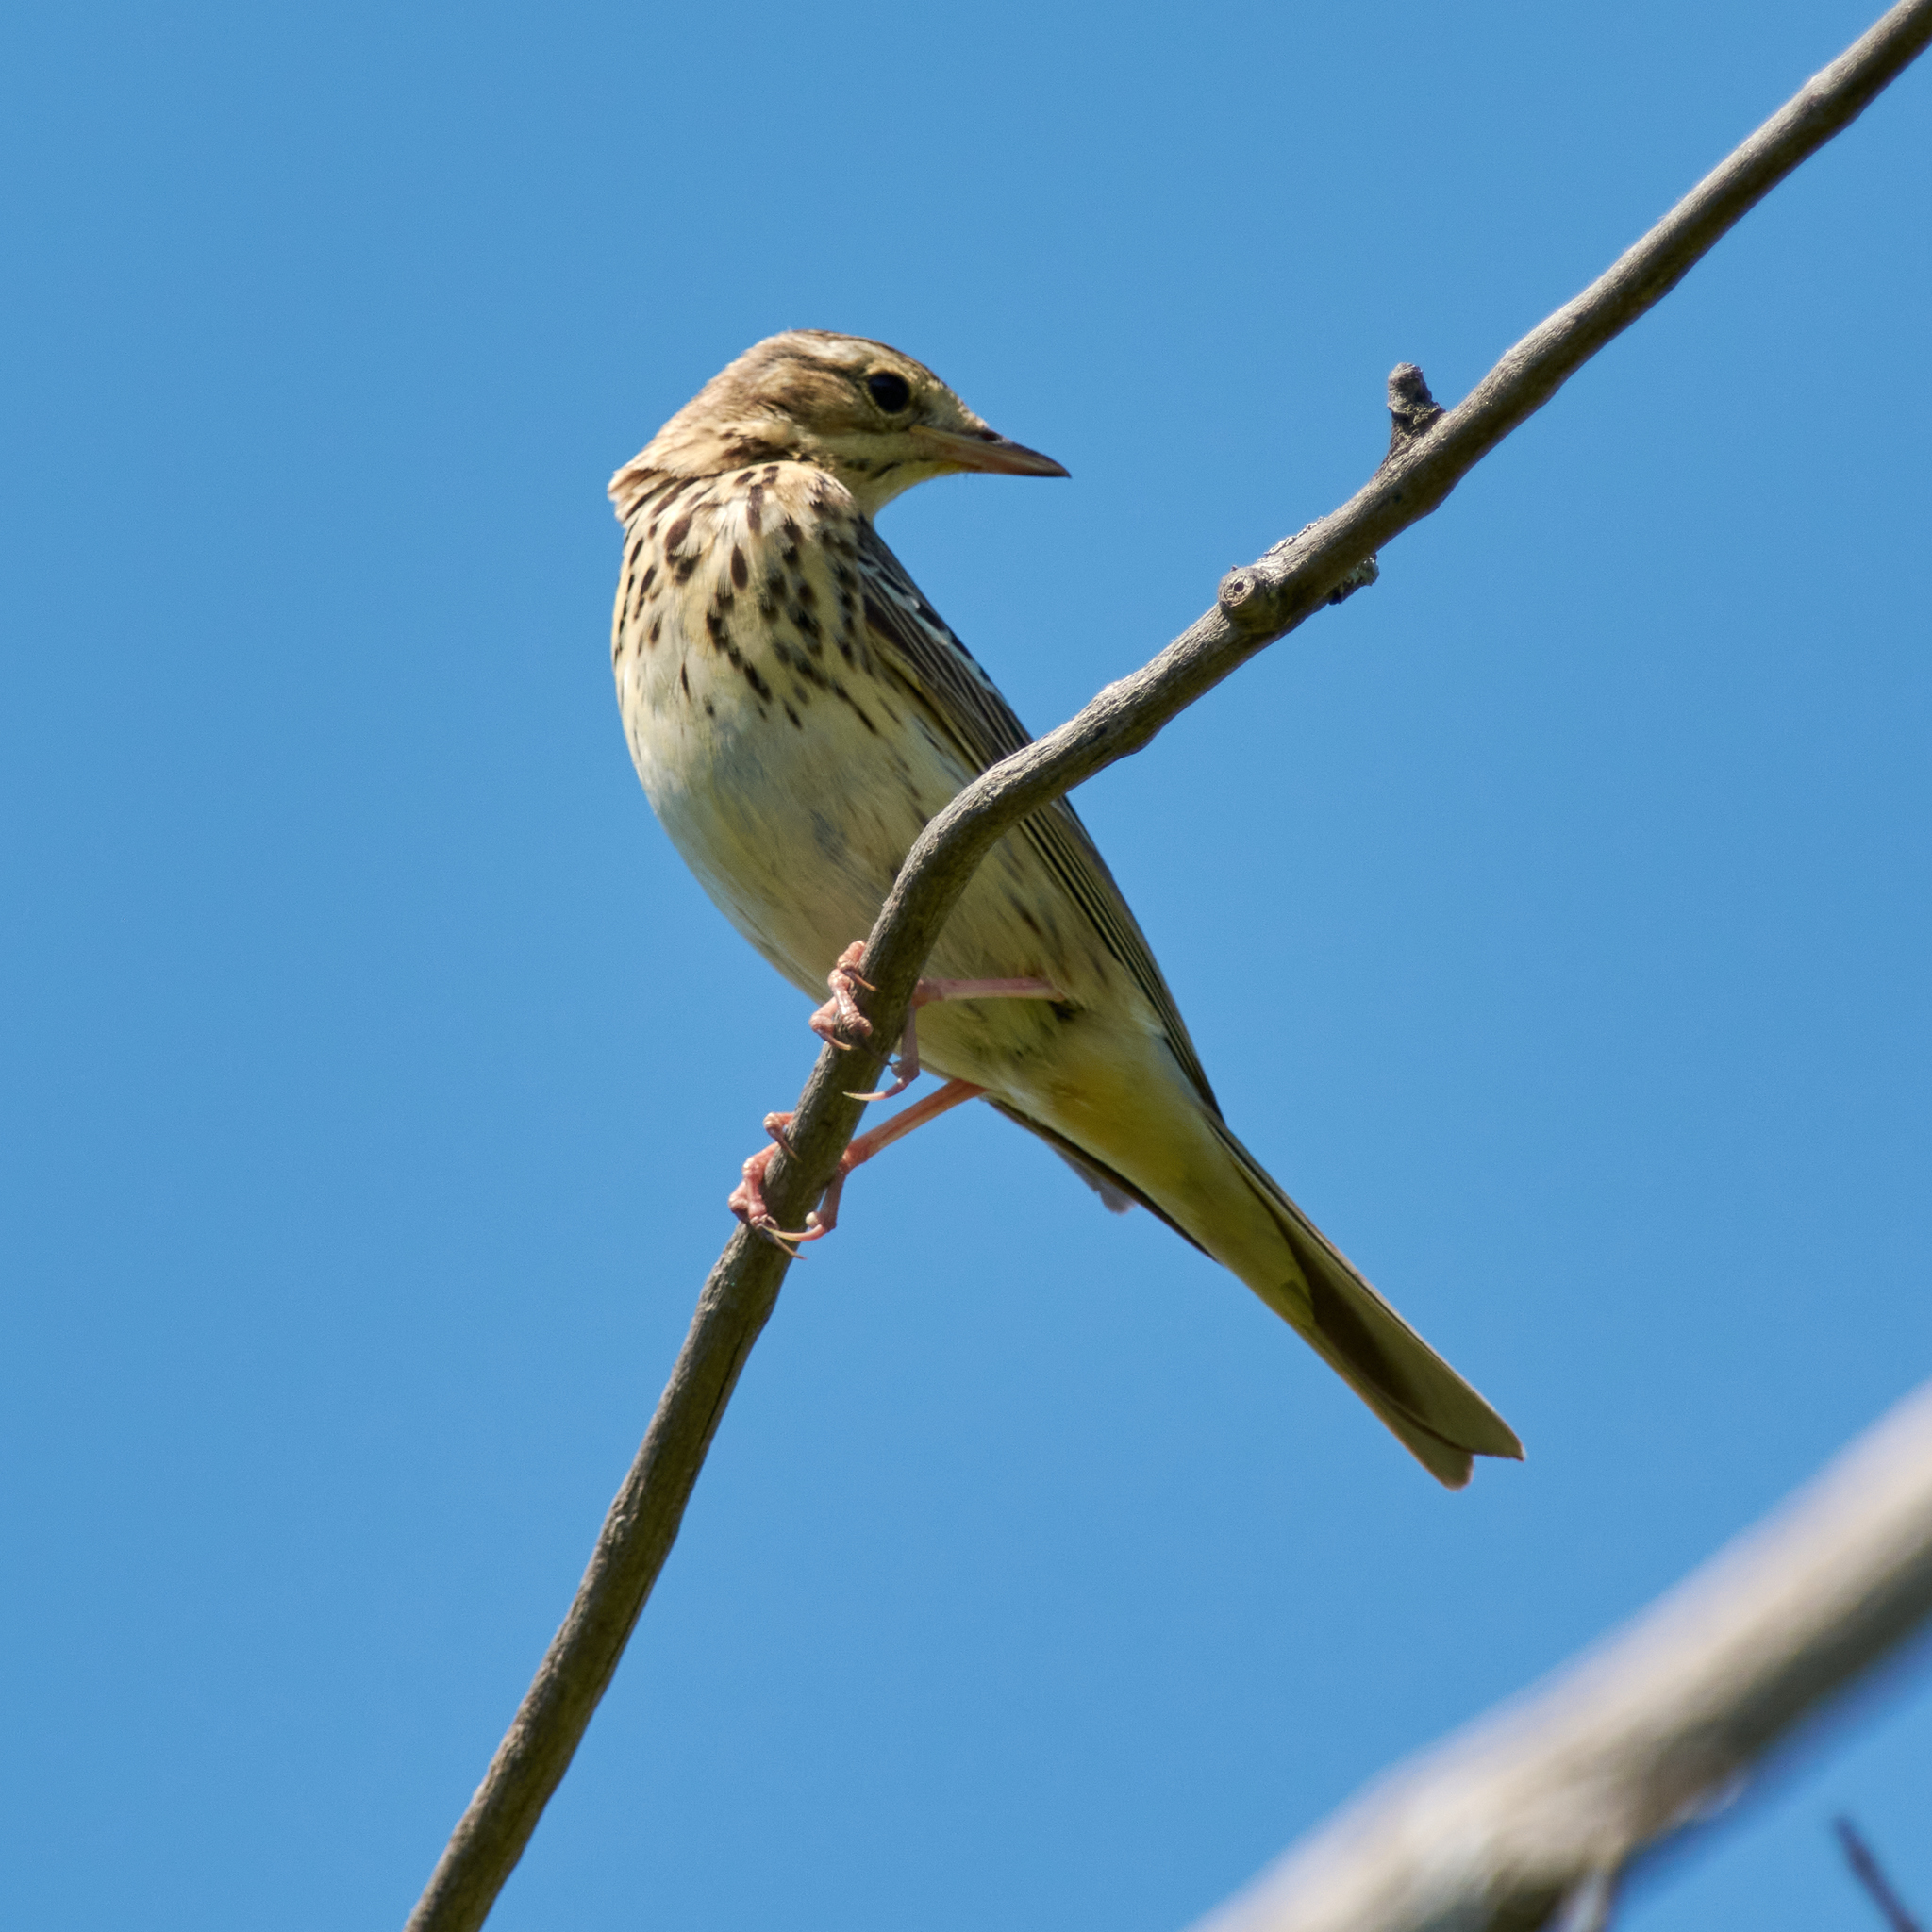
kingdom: Animalia
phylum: Chordata
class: Aves
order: Passeriformes
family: Motacillidae
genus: Anthus
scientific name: Anthus trivialis
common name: Tree pipit
